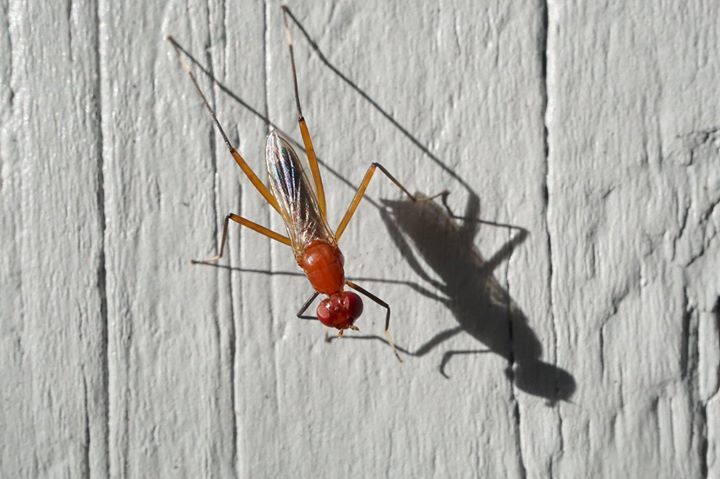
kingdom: Animalia
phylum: Arthropoda
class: Insecta
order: Diptera
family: Micropezidae
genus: Grallipeza
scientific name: Grallipeza nebulosa
